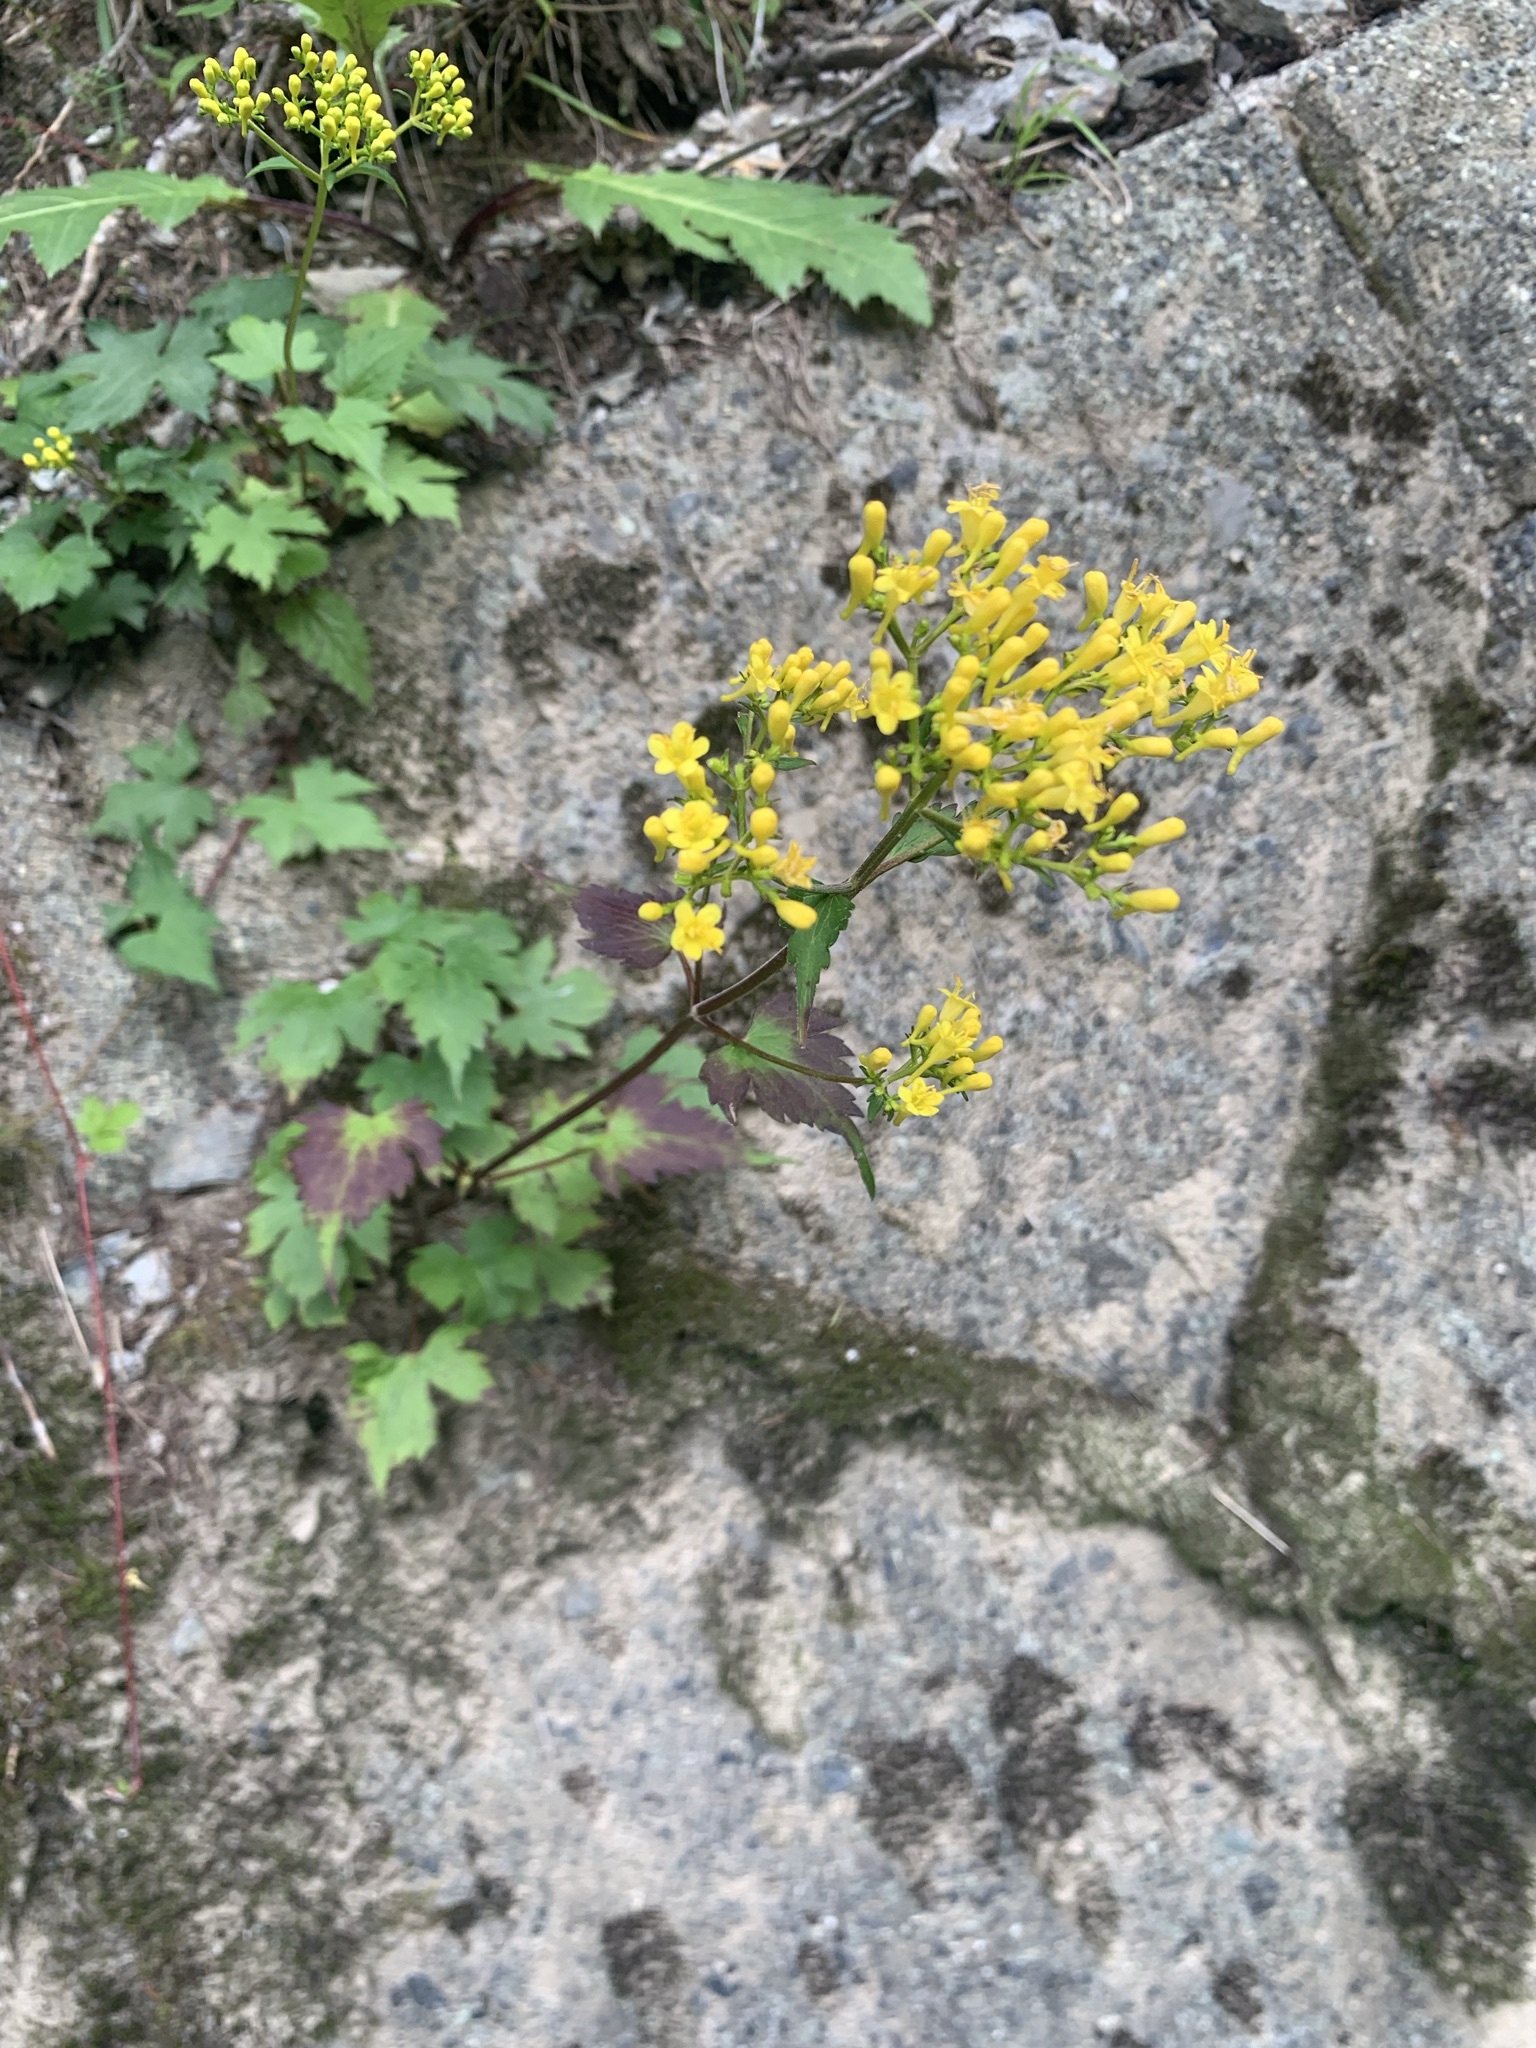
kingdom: Plantae
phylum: Tracheophyta
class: Magnoliopsida
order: Dipsacales
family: Caprifoliaceae
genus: Patrinia
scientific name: Patrinia triloba
